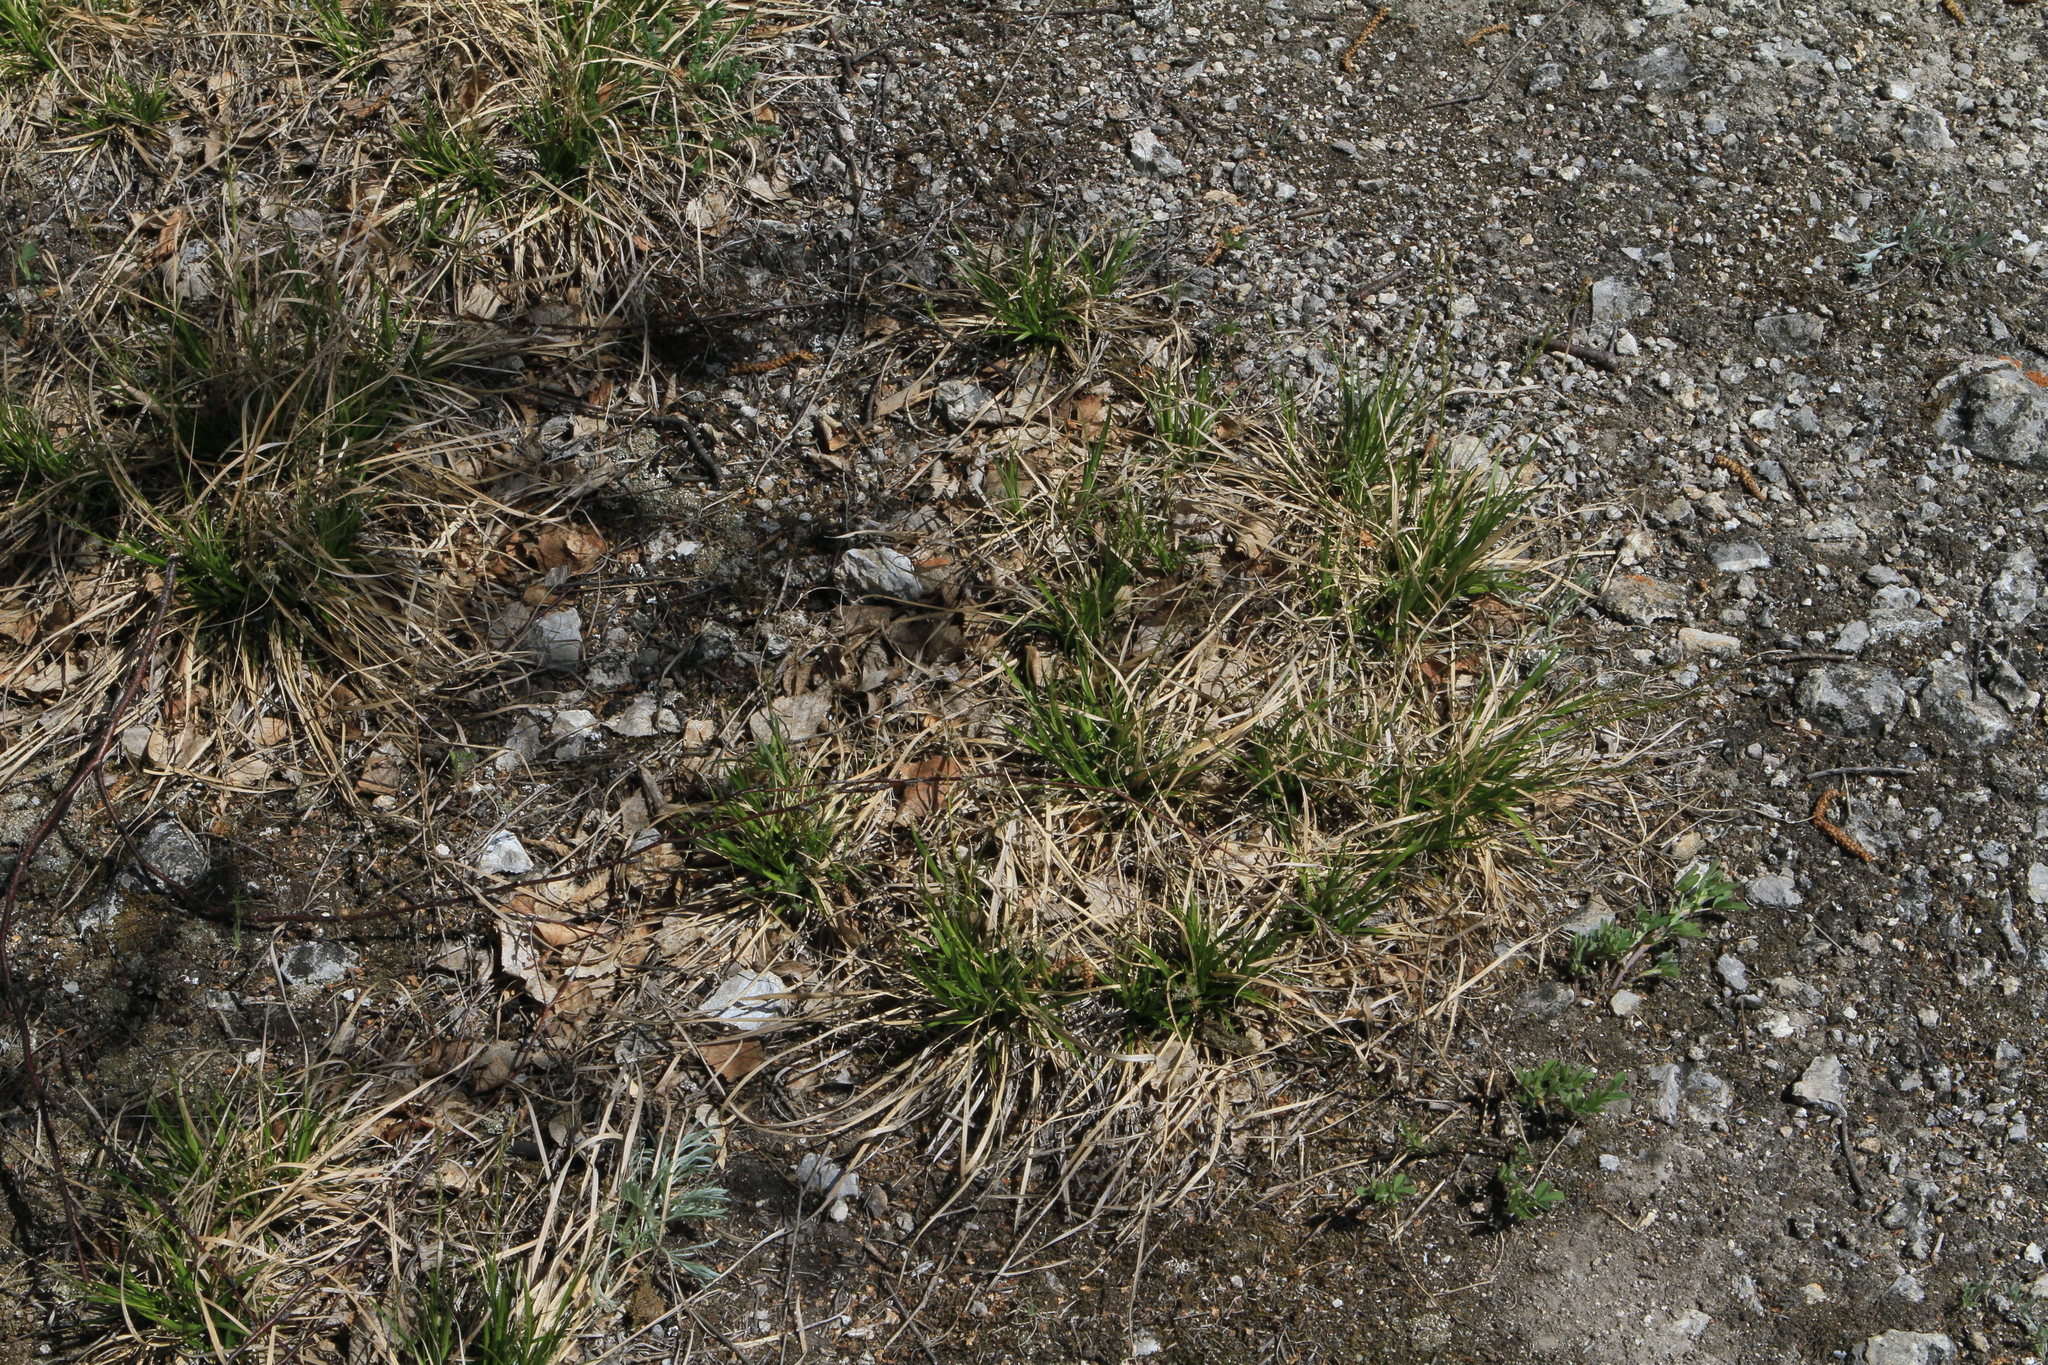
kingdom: Plantae
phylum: Tracheophyta
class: Liliopsida
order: Poales
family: Cyperaceae
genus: Carex
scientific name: Carex pediformis
